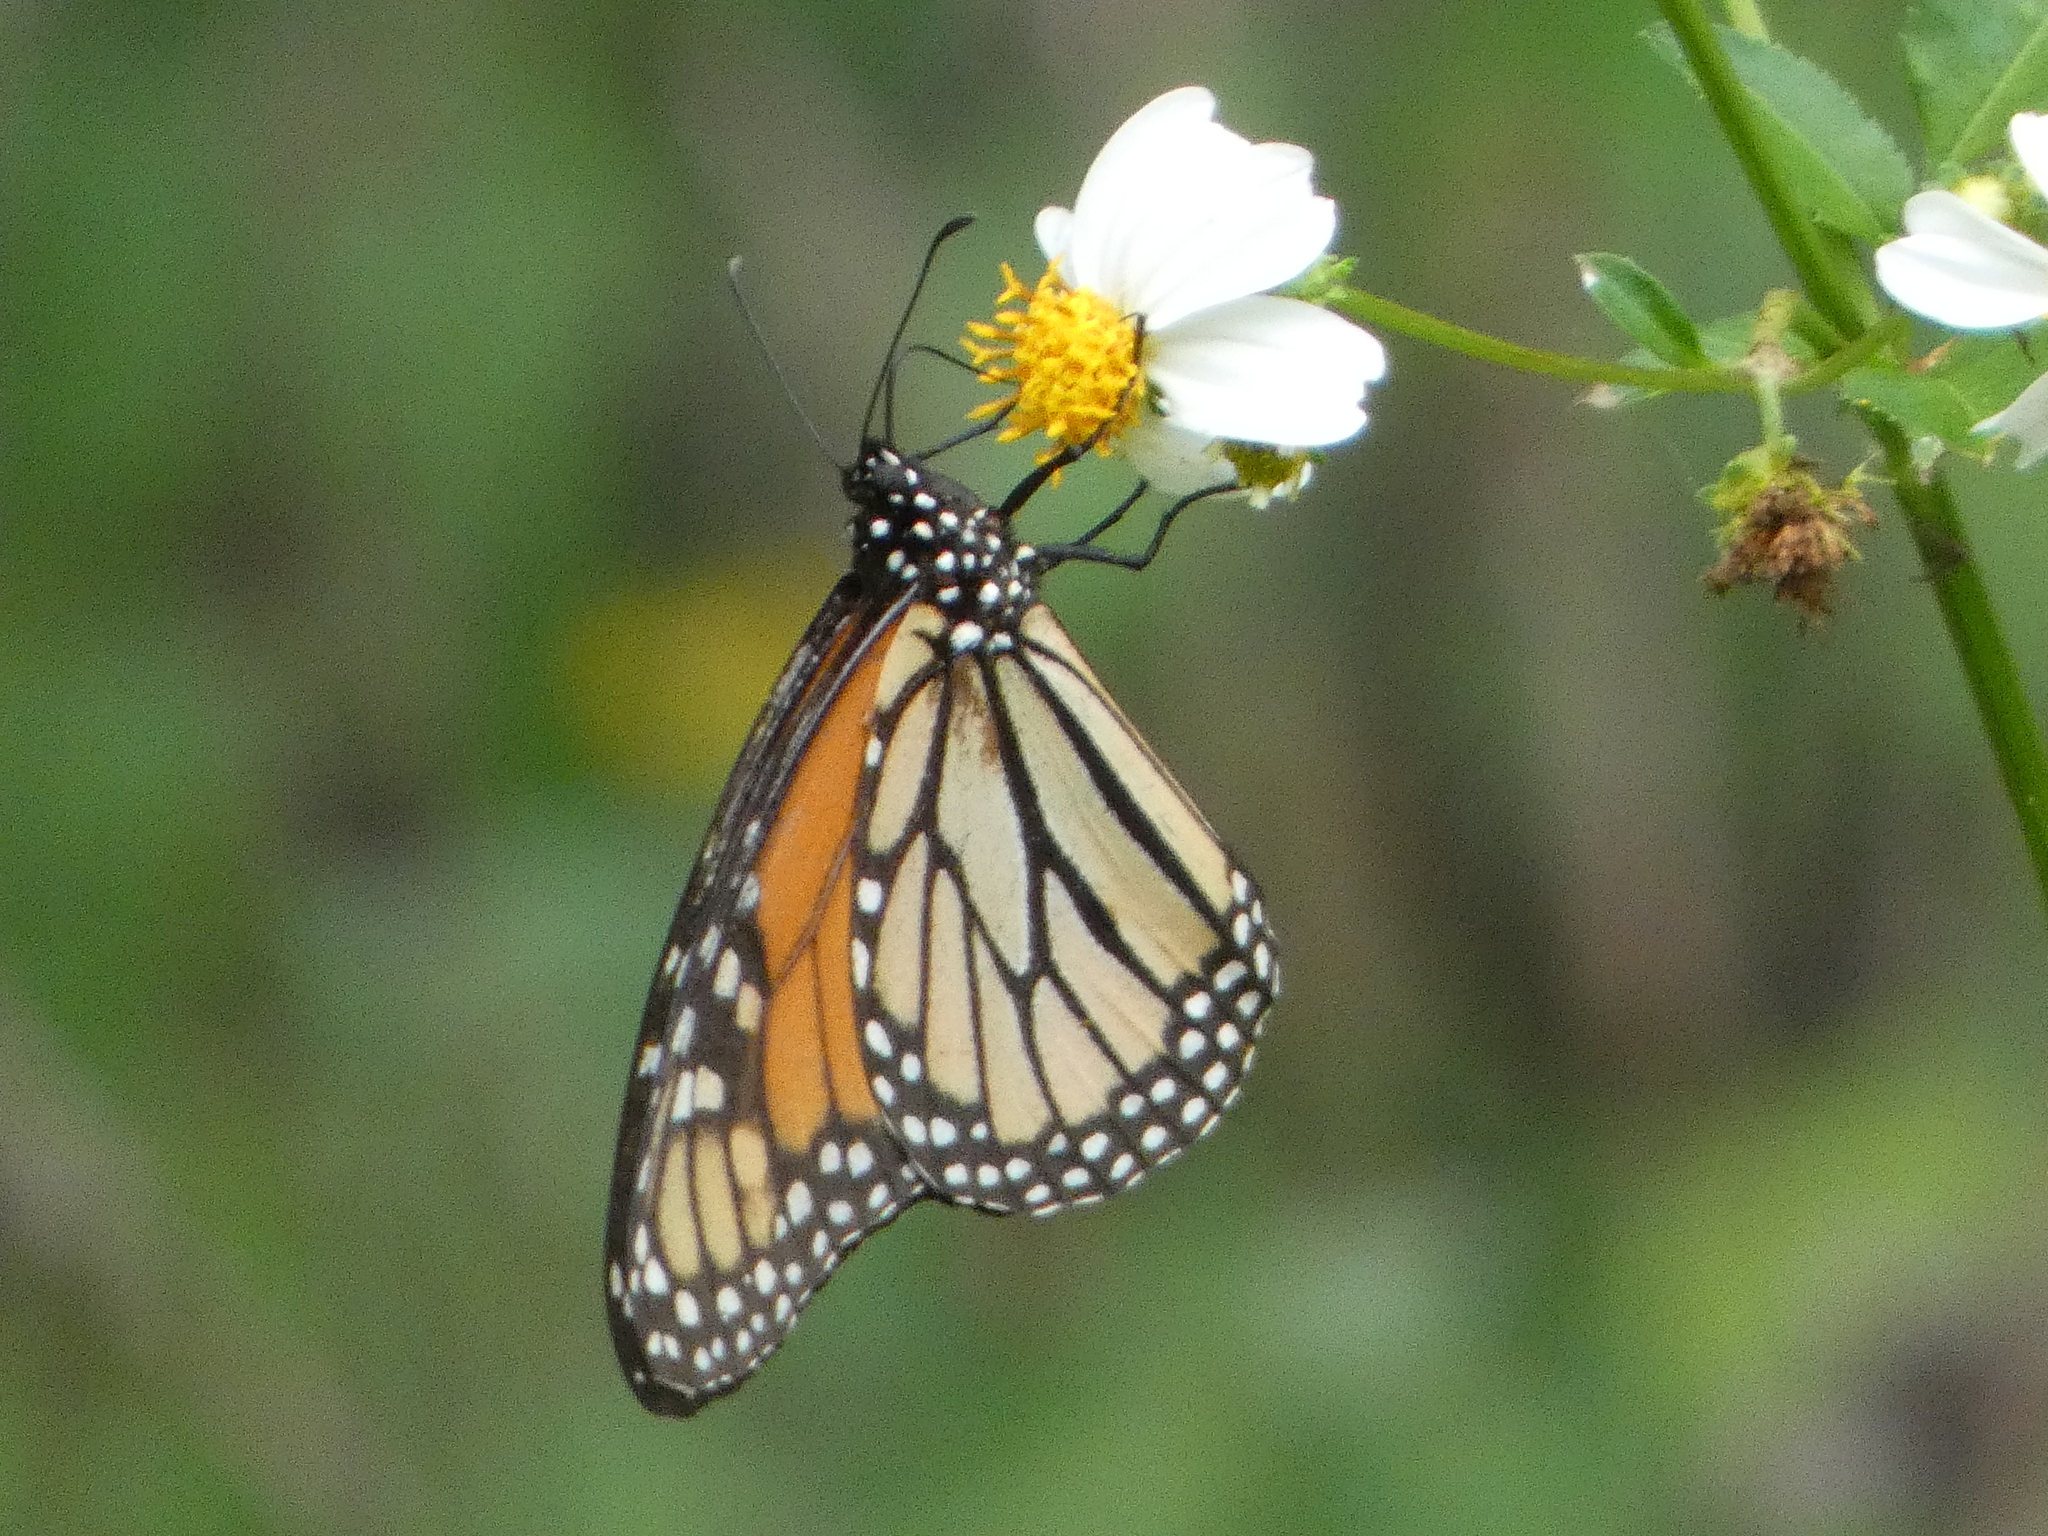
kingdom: Animalia
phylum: Arthropoda
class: Insecta
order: Lepidoptera
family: Nymphalidae
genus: Danaus
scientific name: Danaus plexippus
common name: Monarch
